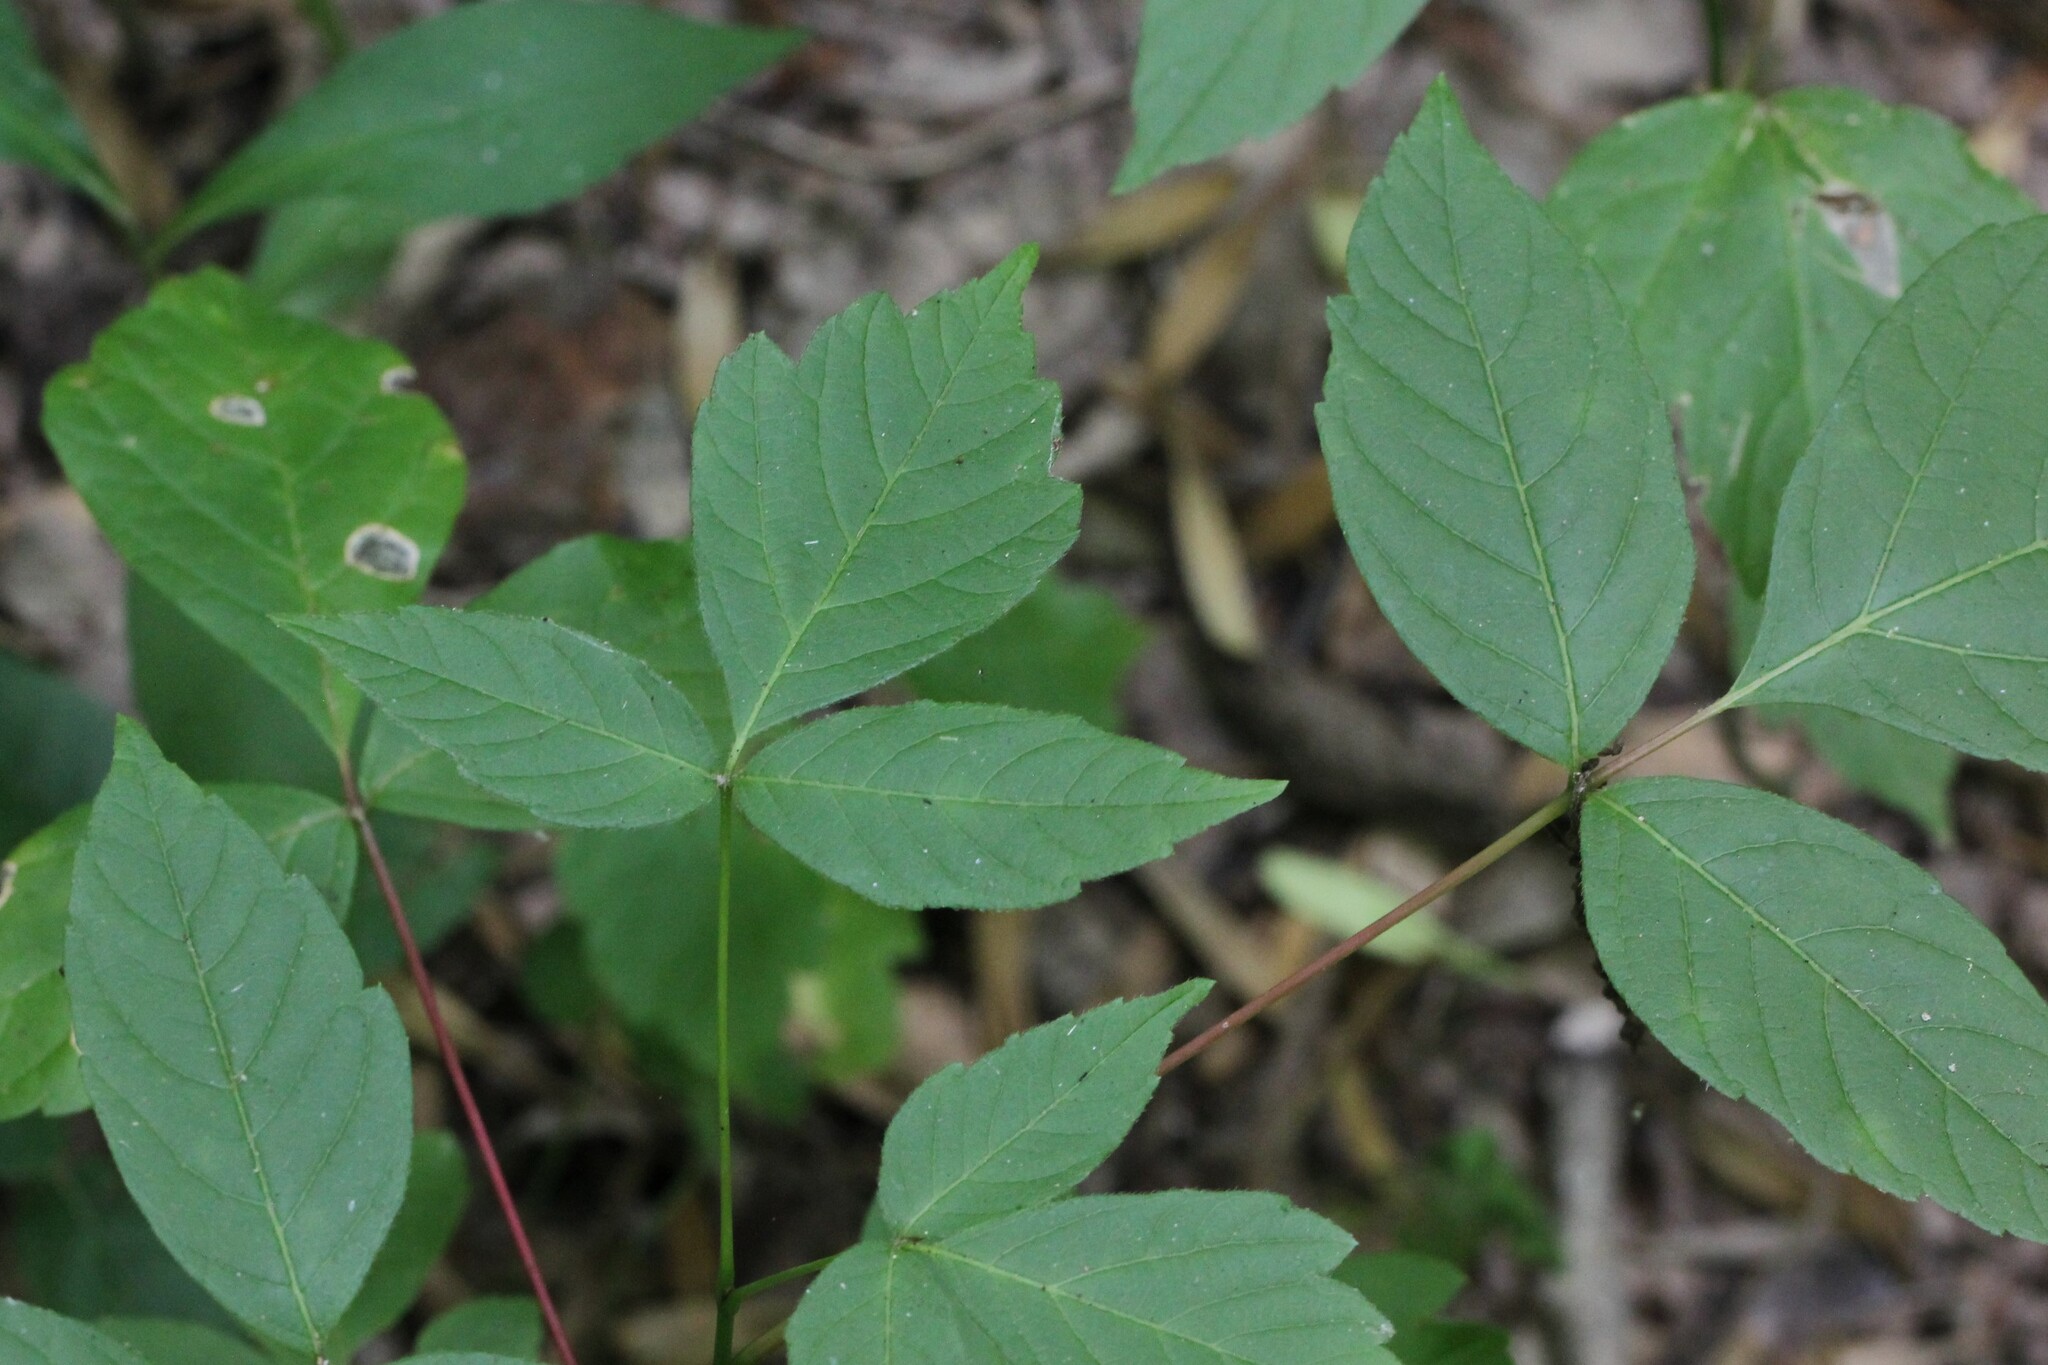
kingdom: Plantae
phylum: Tracheophyta
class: Magnoliopsida
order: Sapindales
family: Sapindaceae
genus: Acer
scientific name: Acer negundo
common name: Ashleaf maple
